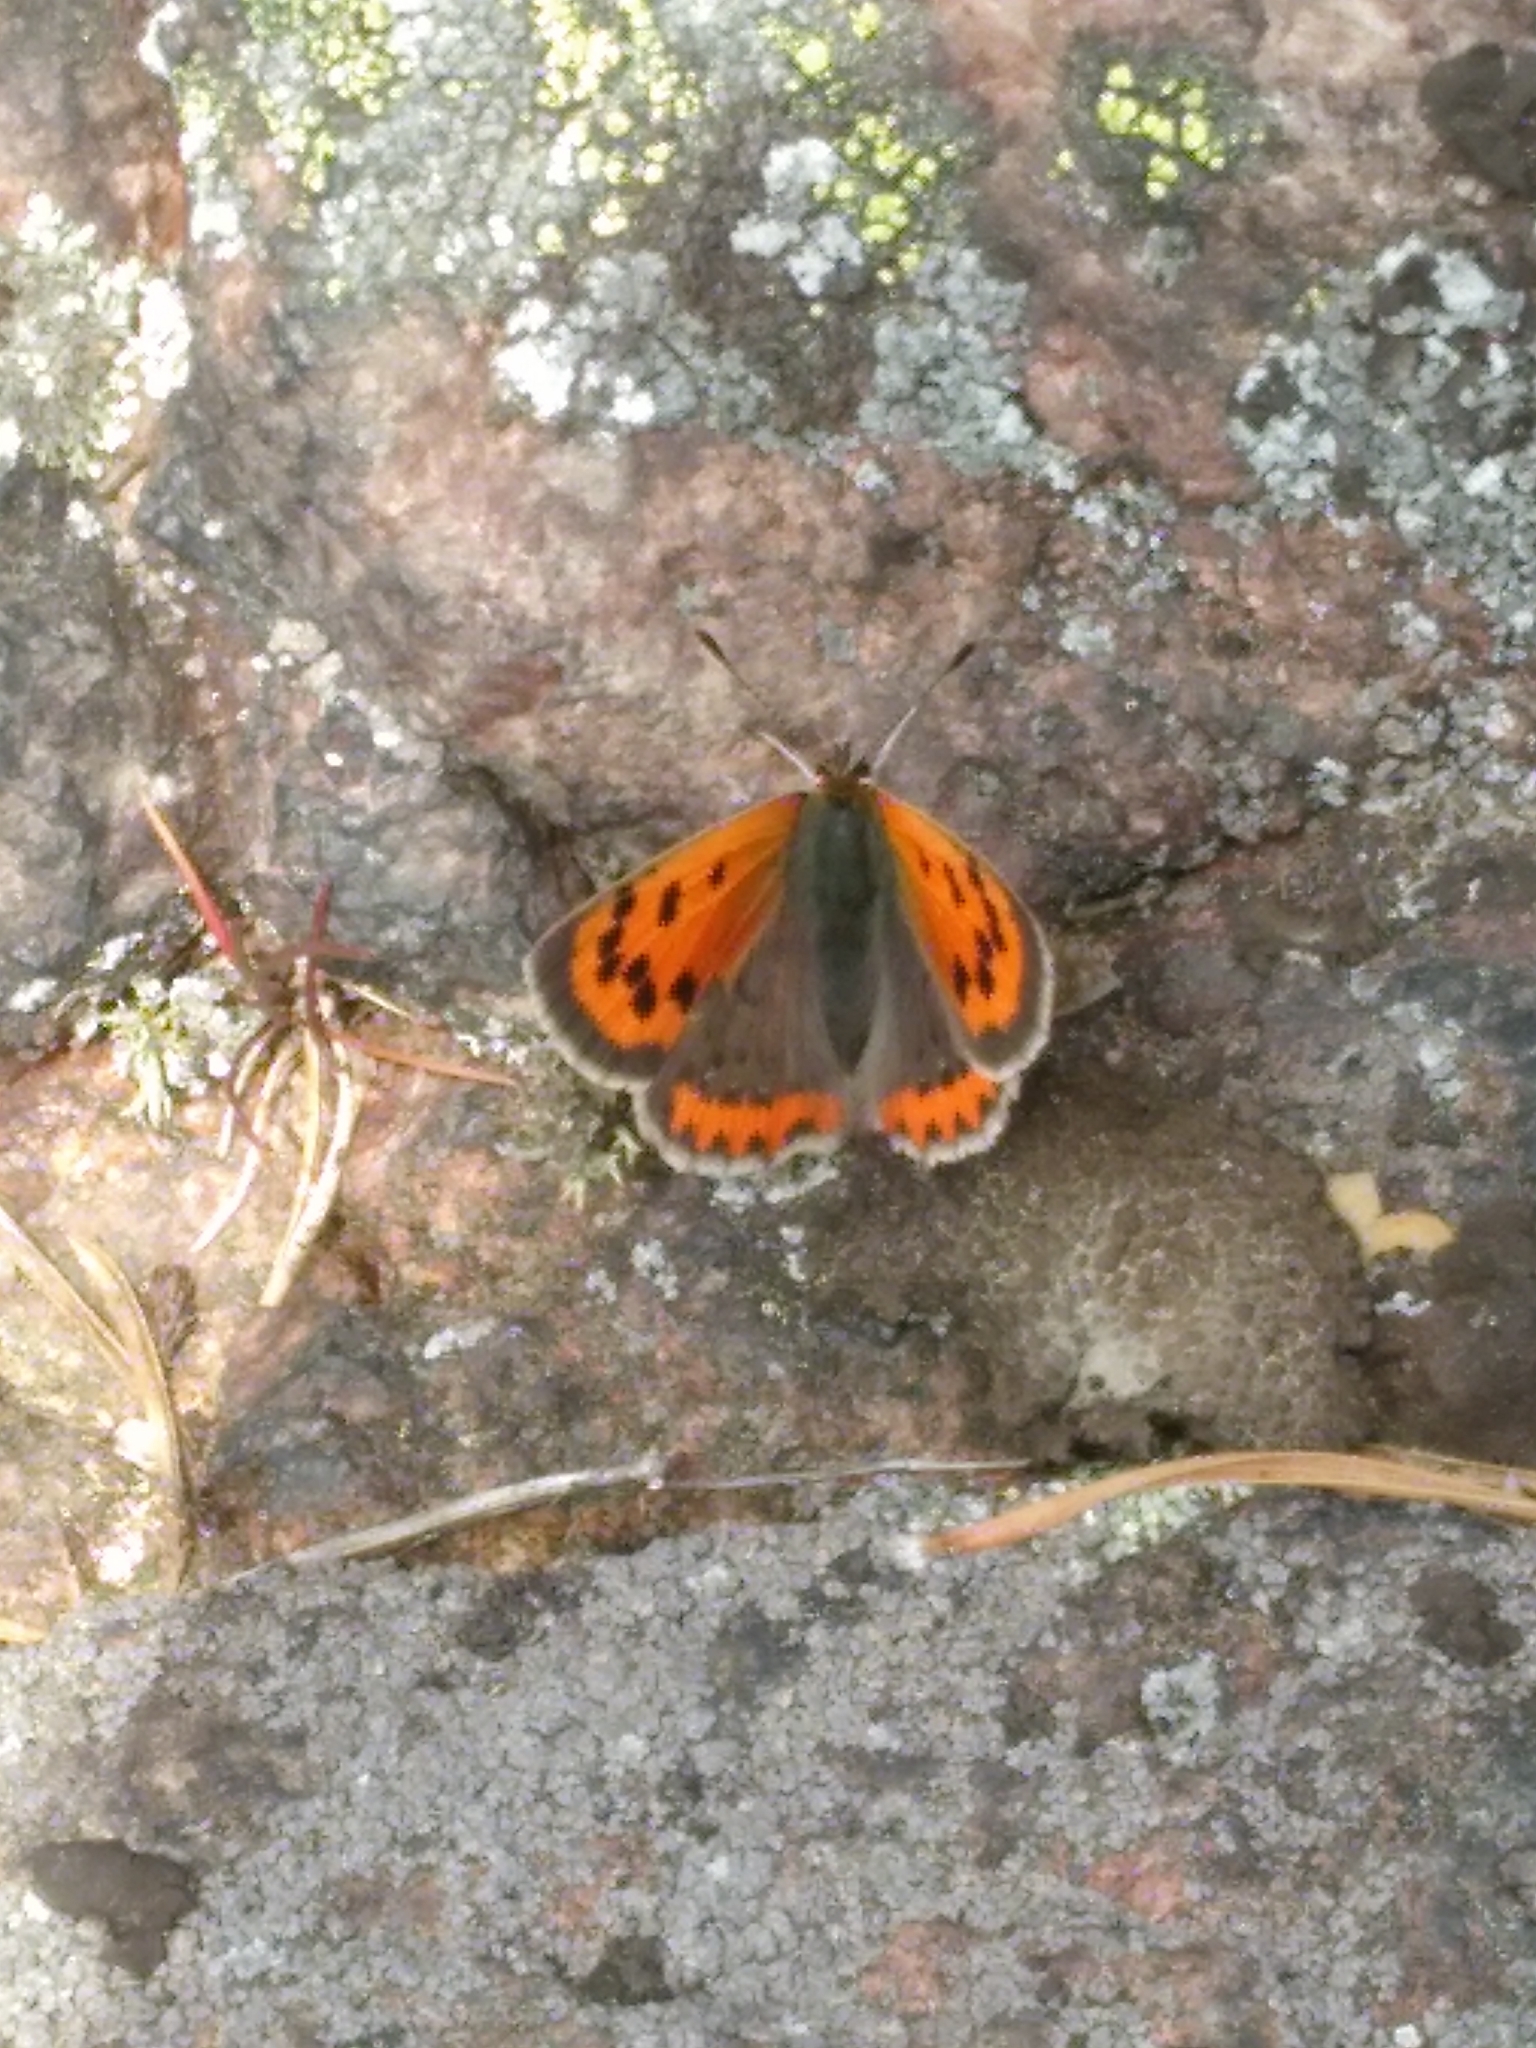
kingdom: Animalia
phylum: Arthropoda
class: Insecta
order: Lepidoptera
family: Lycaenidae
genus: Lycaena
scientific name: Lycaena phlaeas
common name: Small copper
